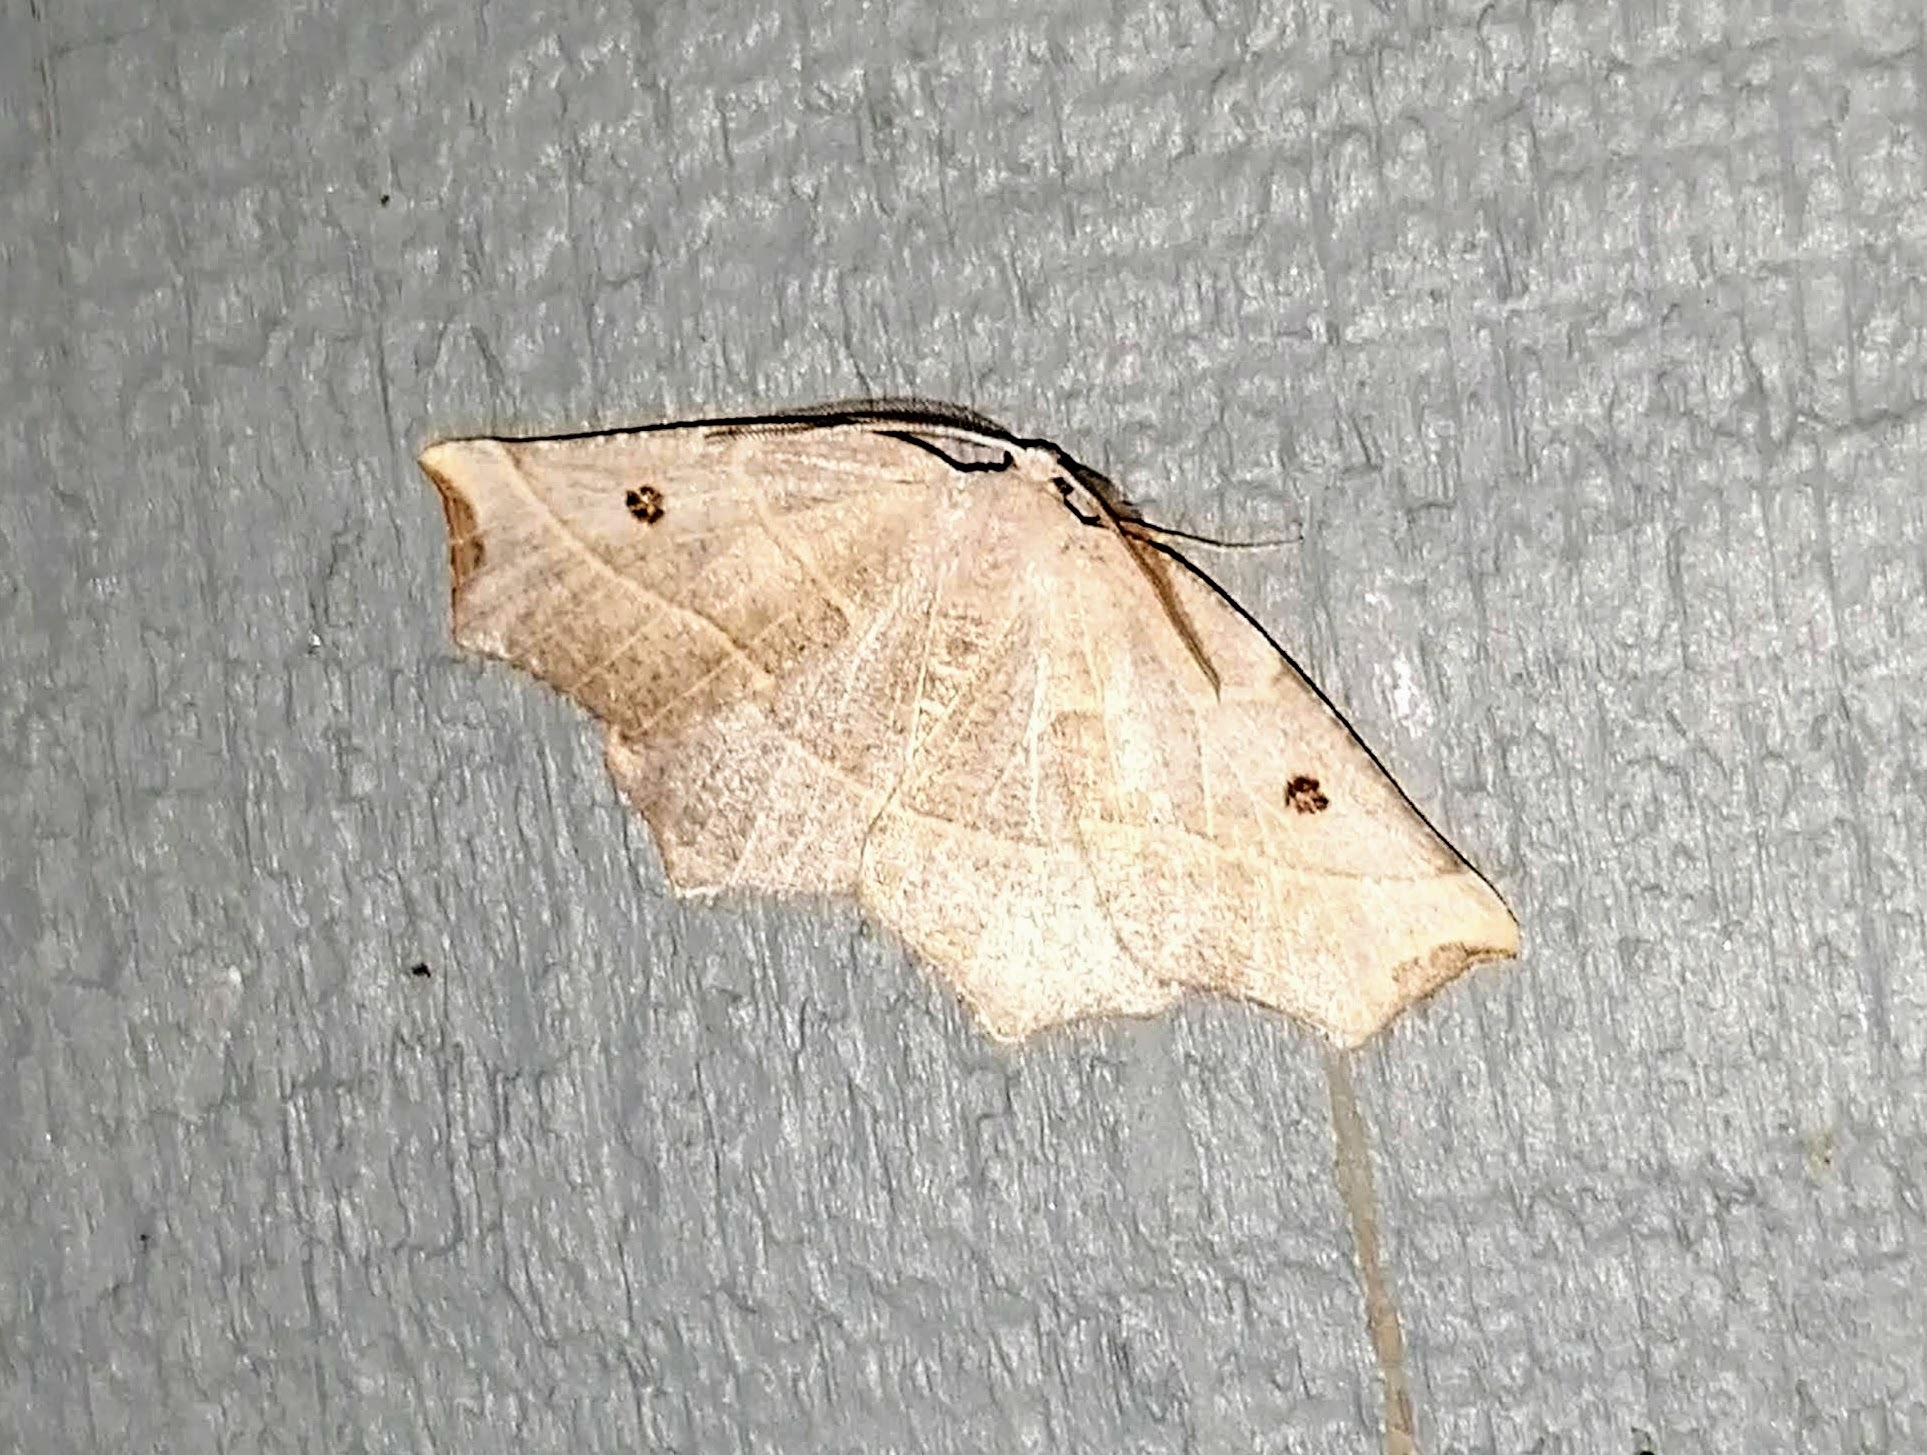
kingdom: Animalia
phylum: Arthropoda
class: Insecta
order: Lepidoptera
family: Geometridae
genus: Metanema
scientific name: Metanema inatomaria
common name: Pale metanema
